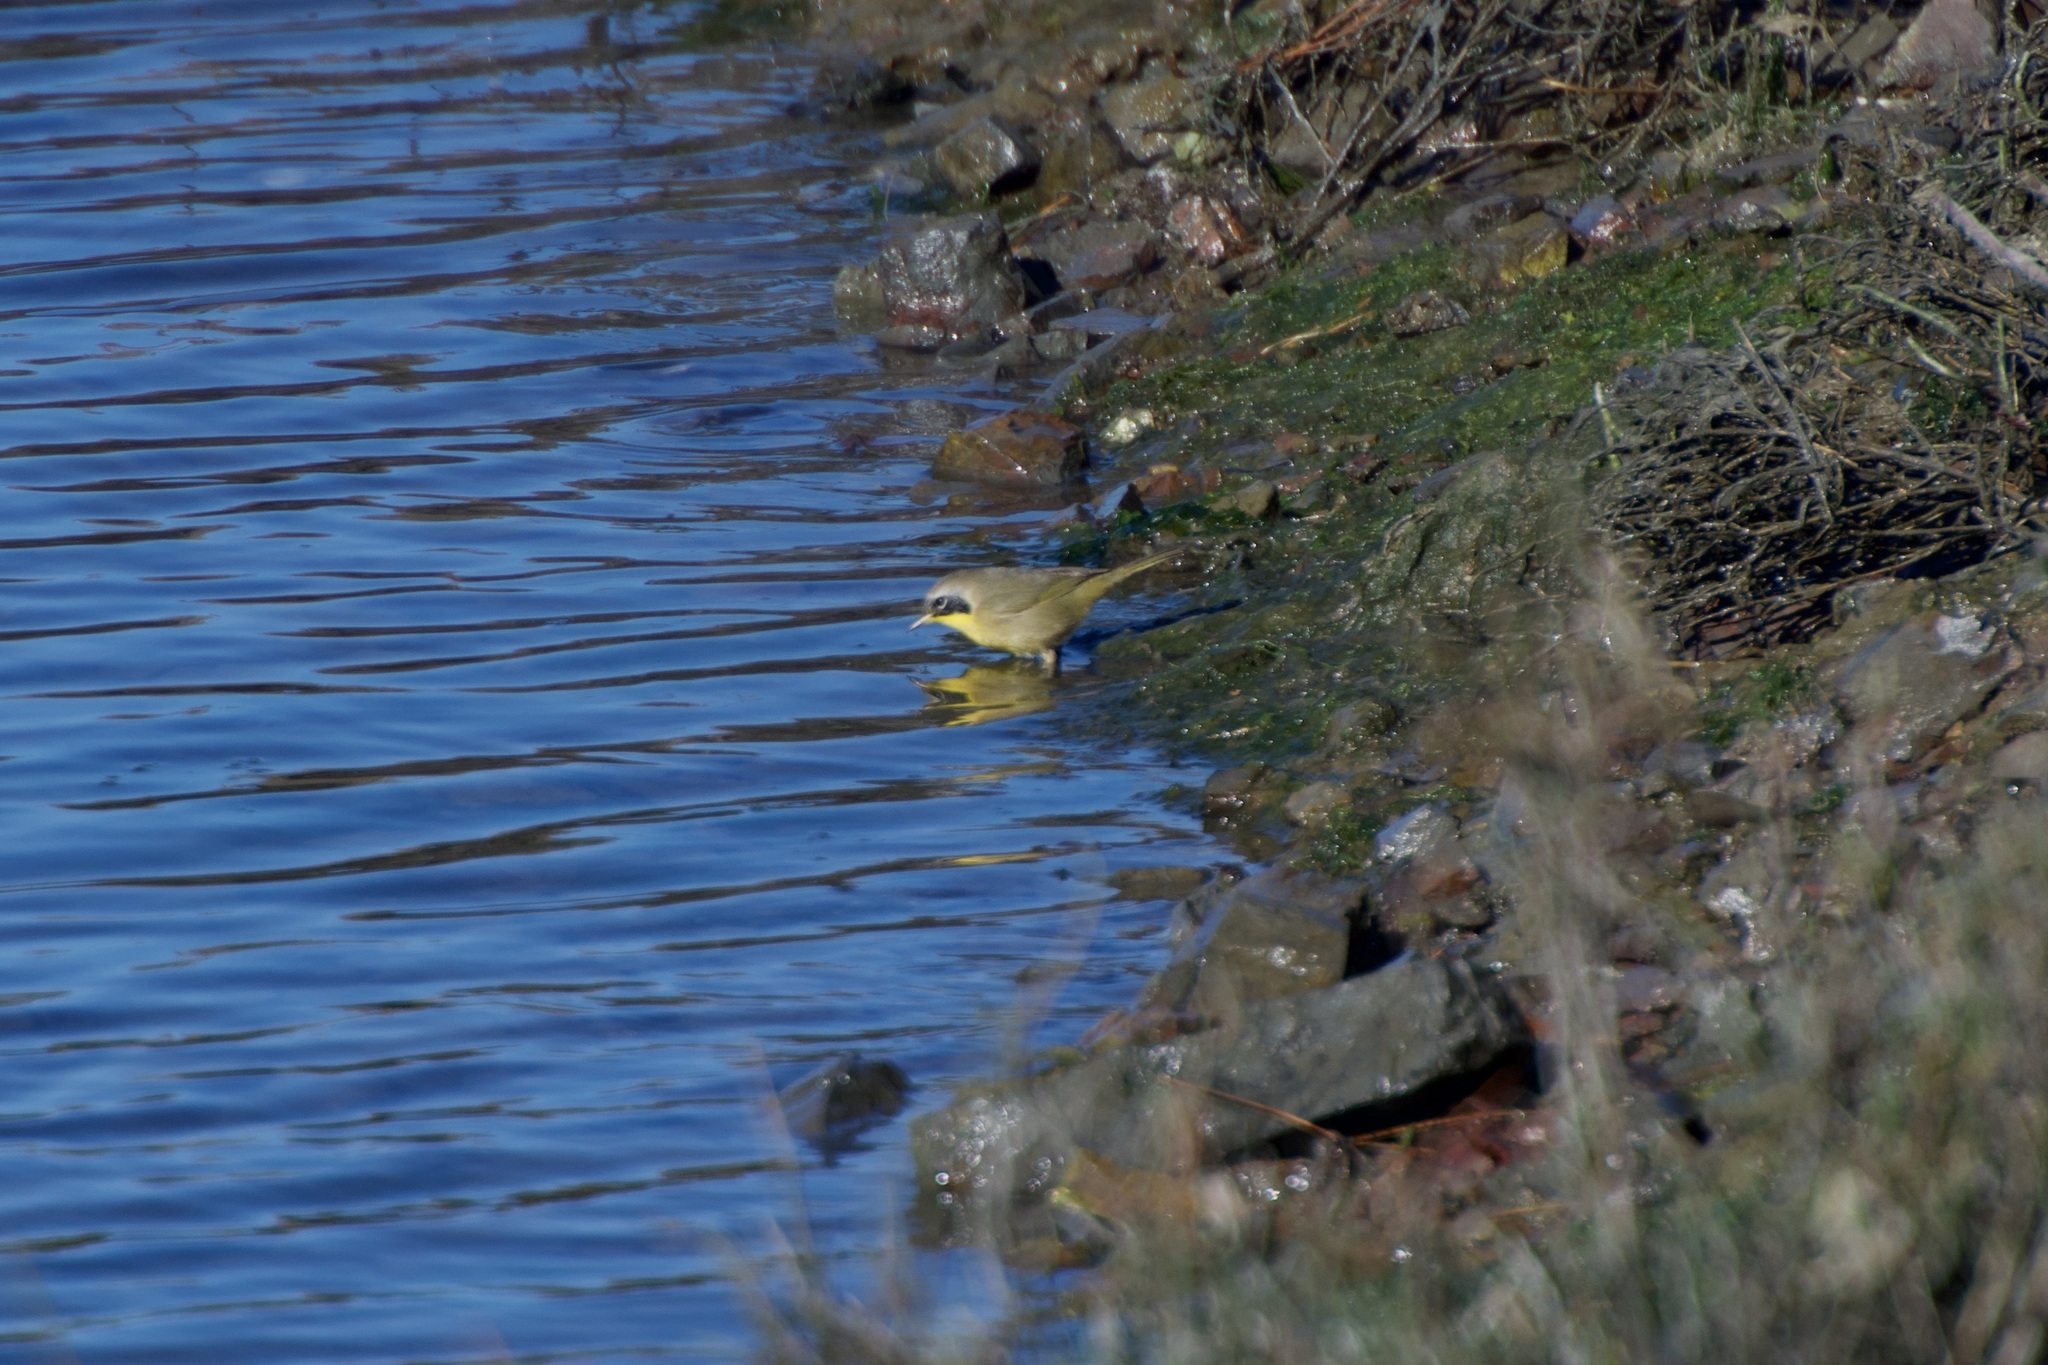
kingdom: Animalia
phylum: Chordata
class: Aves
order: Passeriformes
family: Parulidae
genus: Geothlypis
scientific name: Geothlypis trichas
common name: Common yellowthroat
